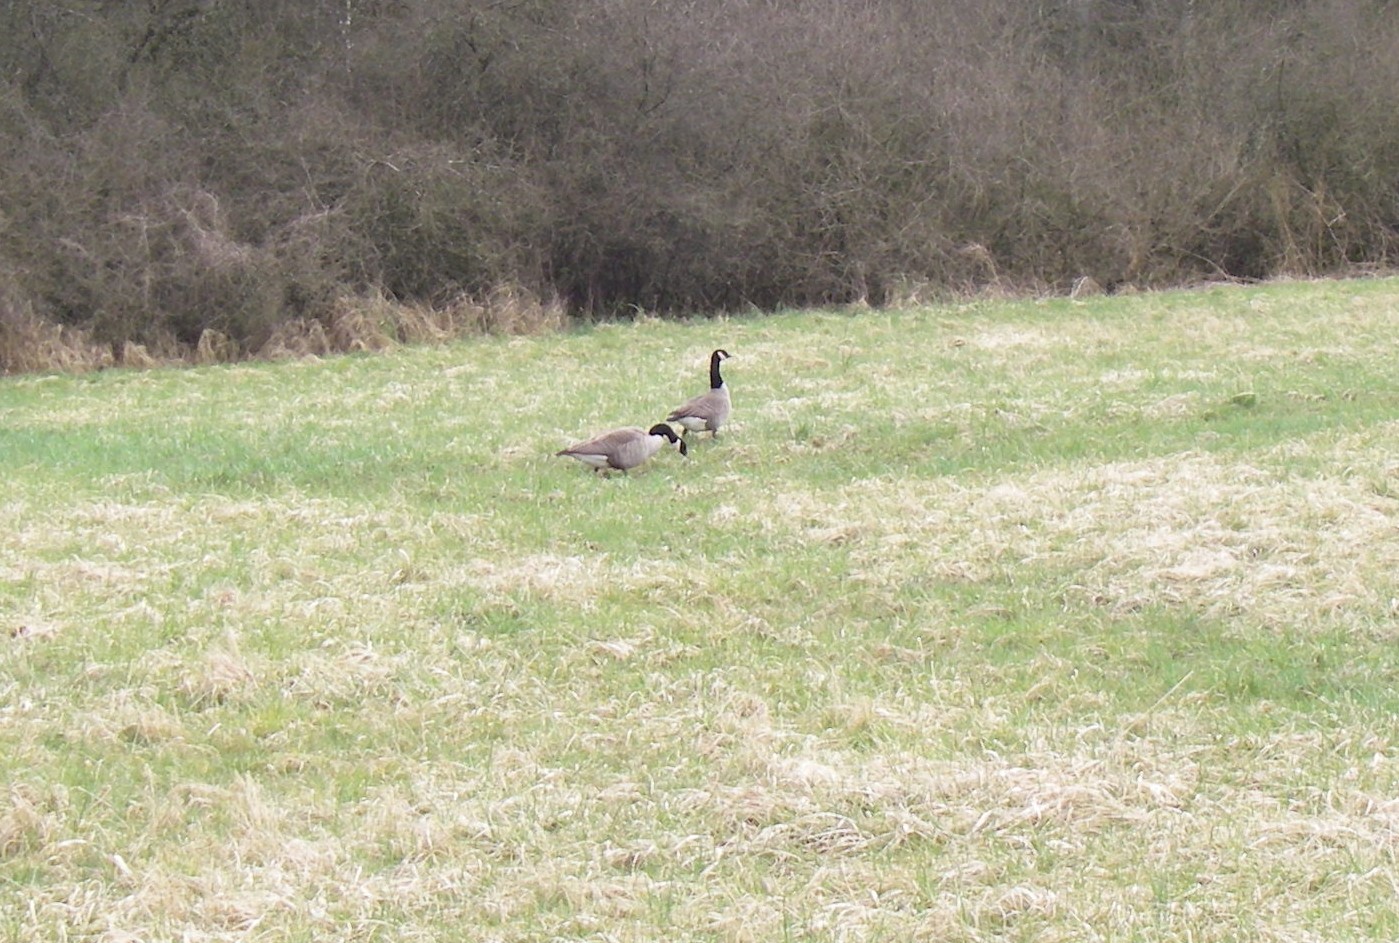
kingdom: Animalia
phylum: Chordata
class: Aves
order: Anseriformes
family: Anatidae
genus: Branta
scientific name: Branta canadensis
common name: Canada goose
